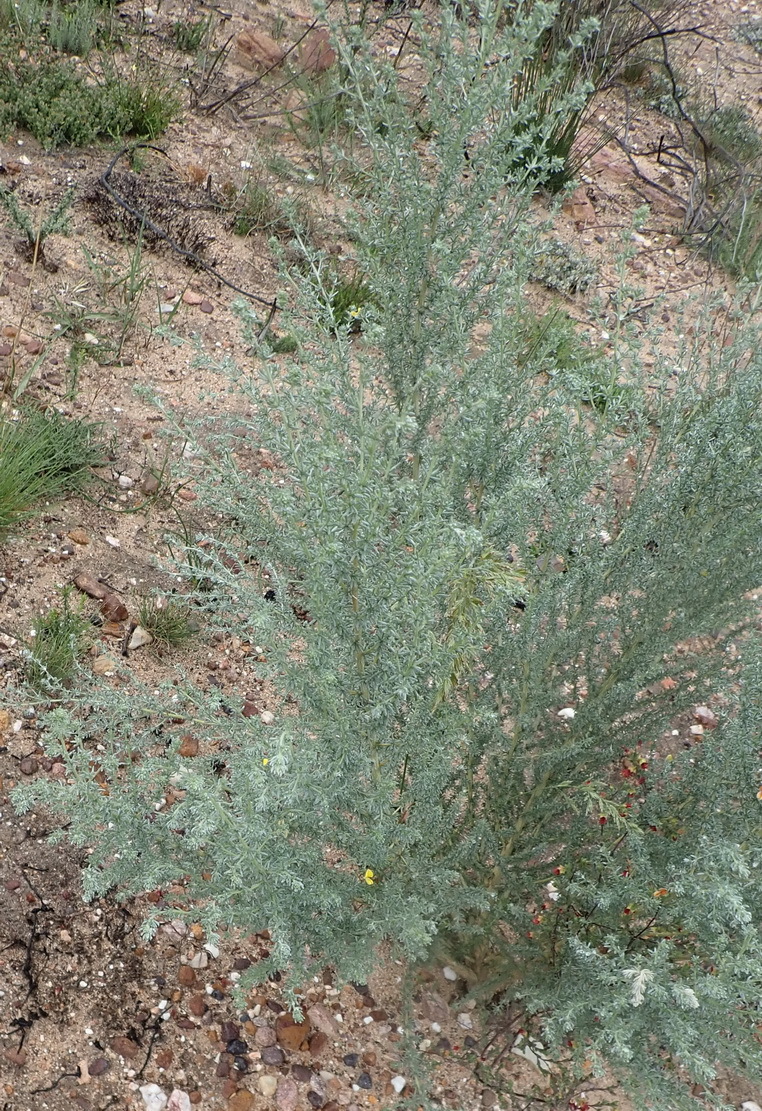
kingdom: Plantae
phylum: Tracheophyta
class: Magnoliopsida
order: Fabales
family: Fabaceae
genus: Aspalathus
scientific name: Aspalathus pedunculata
